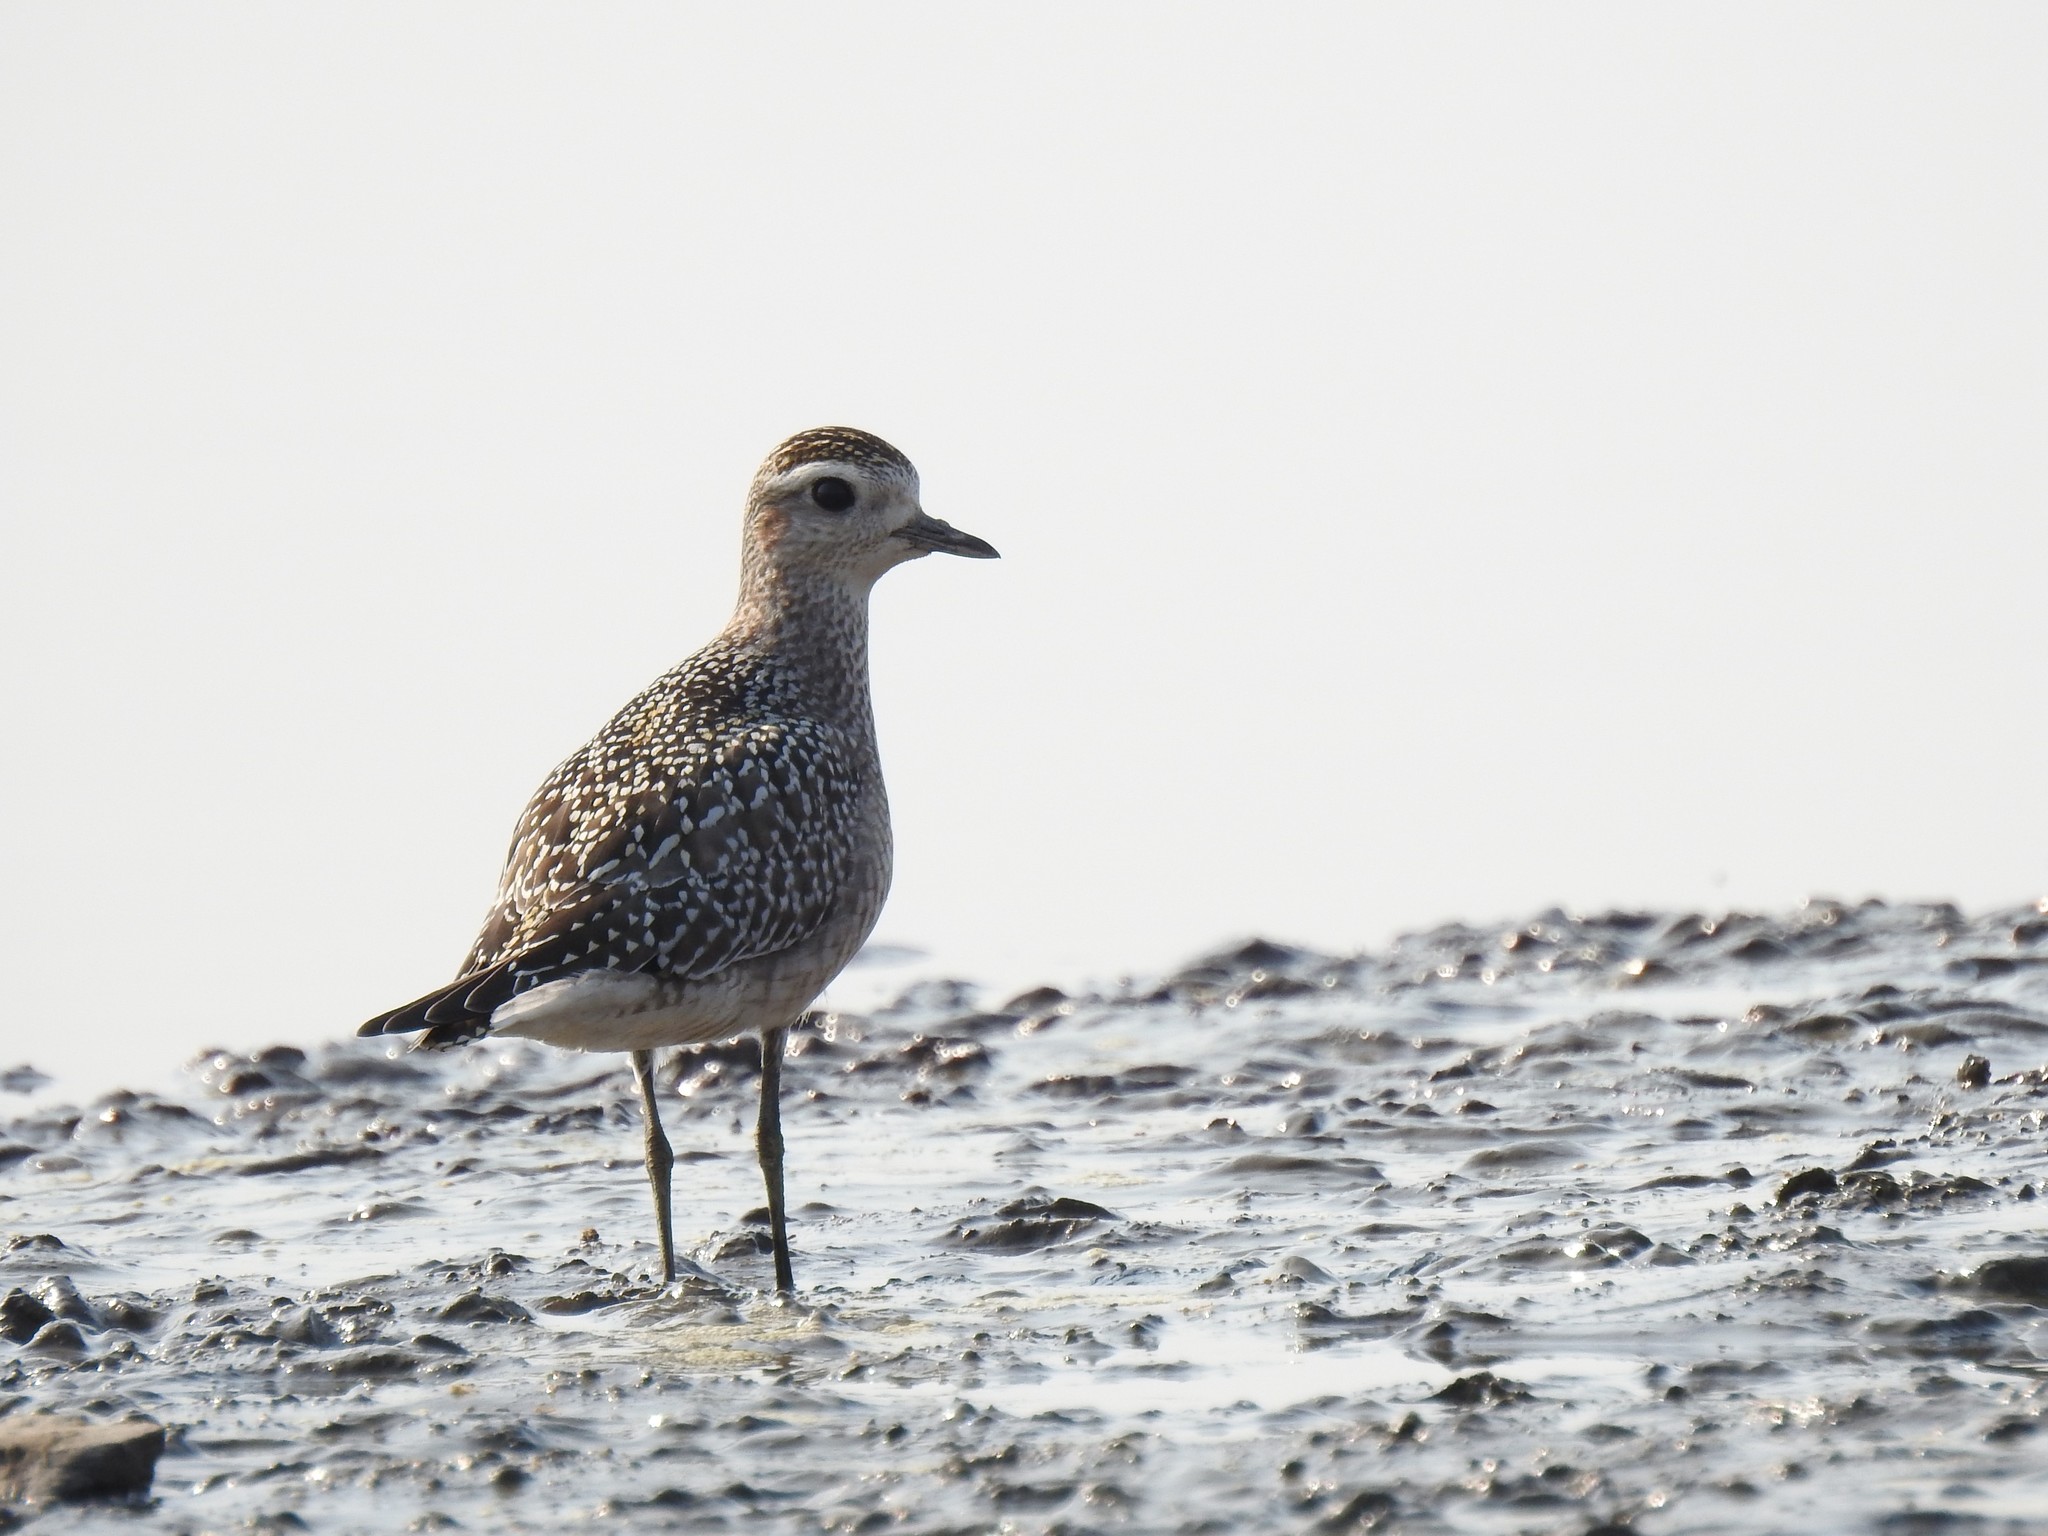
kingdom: Animalia
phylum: Chordata
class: Aves
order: Charadriiformes
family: Charadriidae
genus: Pluvialis
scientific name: Pluvialis dominica
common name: American golden plover
